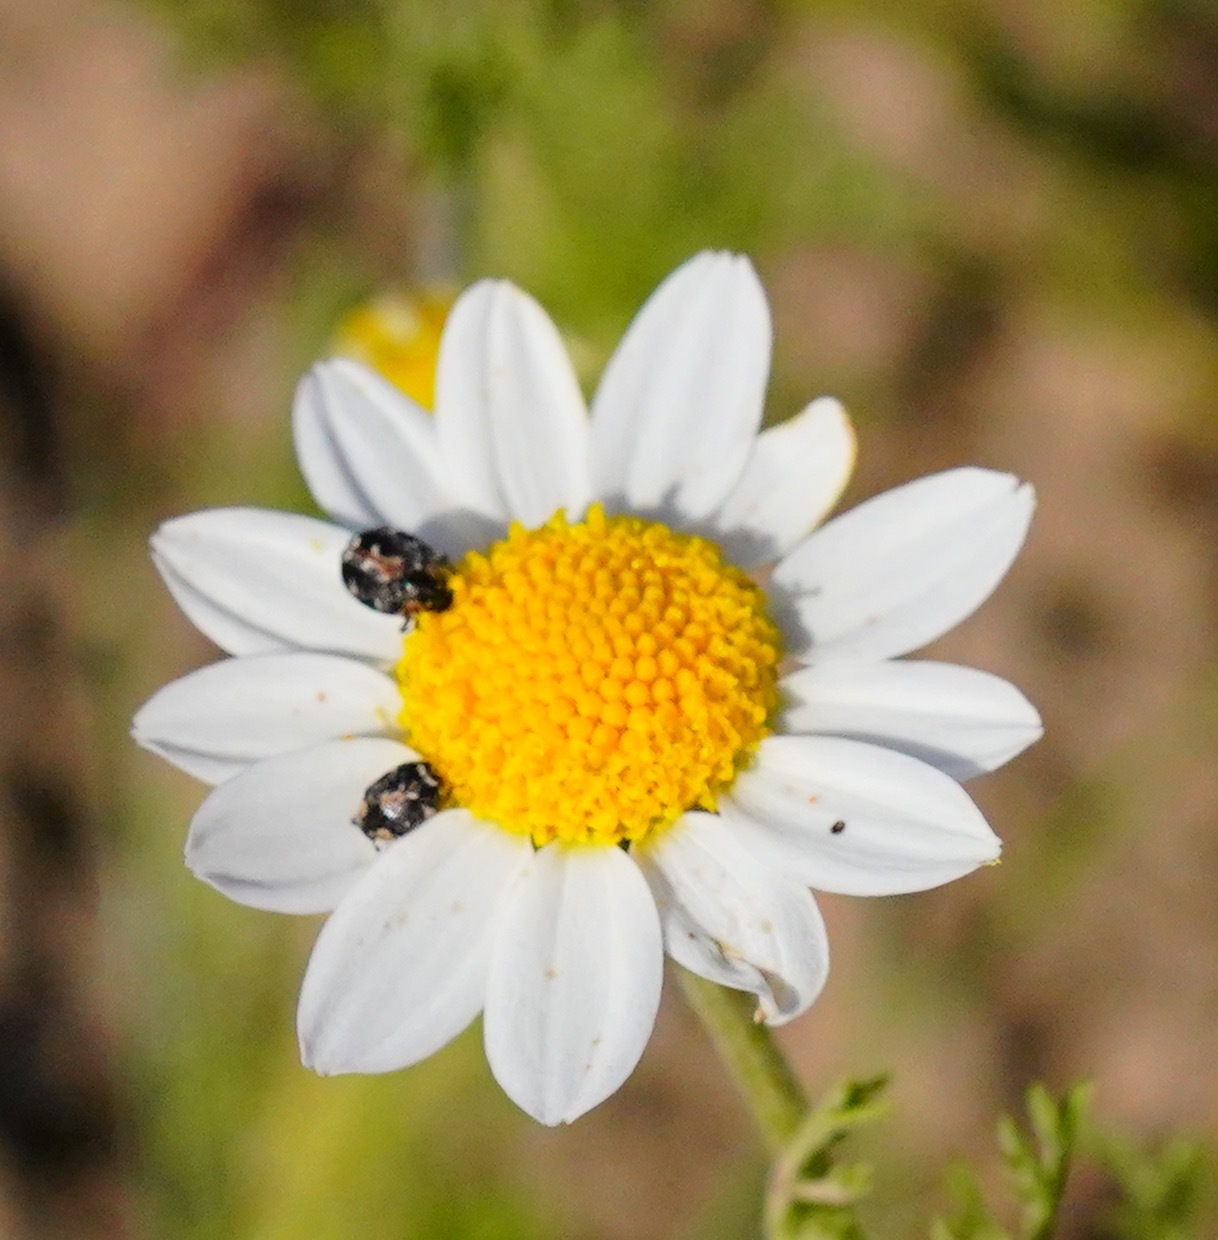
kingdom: Animalia
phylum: Arthropoda
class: Insecta
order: Coleoptera
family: Dermestidae
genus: Anthrenus
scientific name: Anthrenus lepidus
